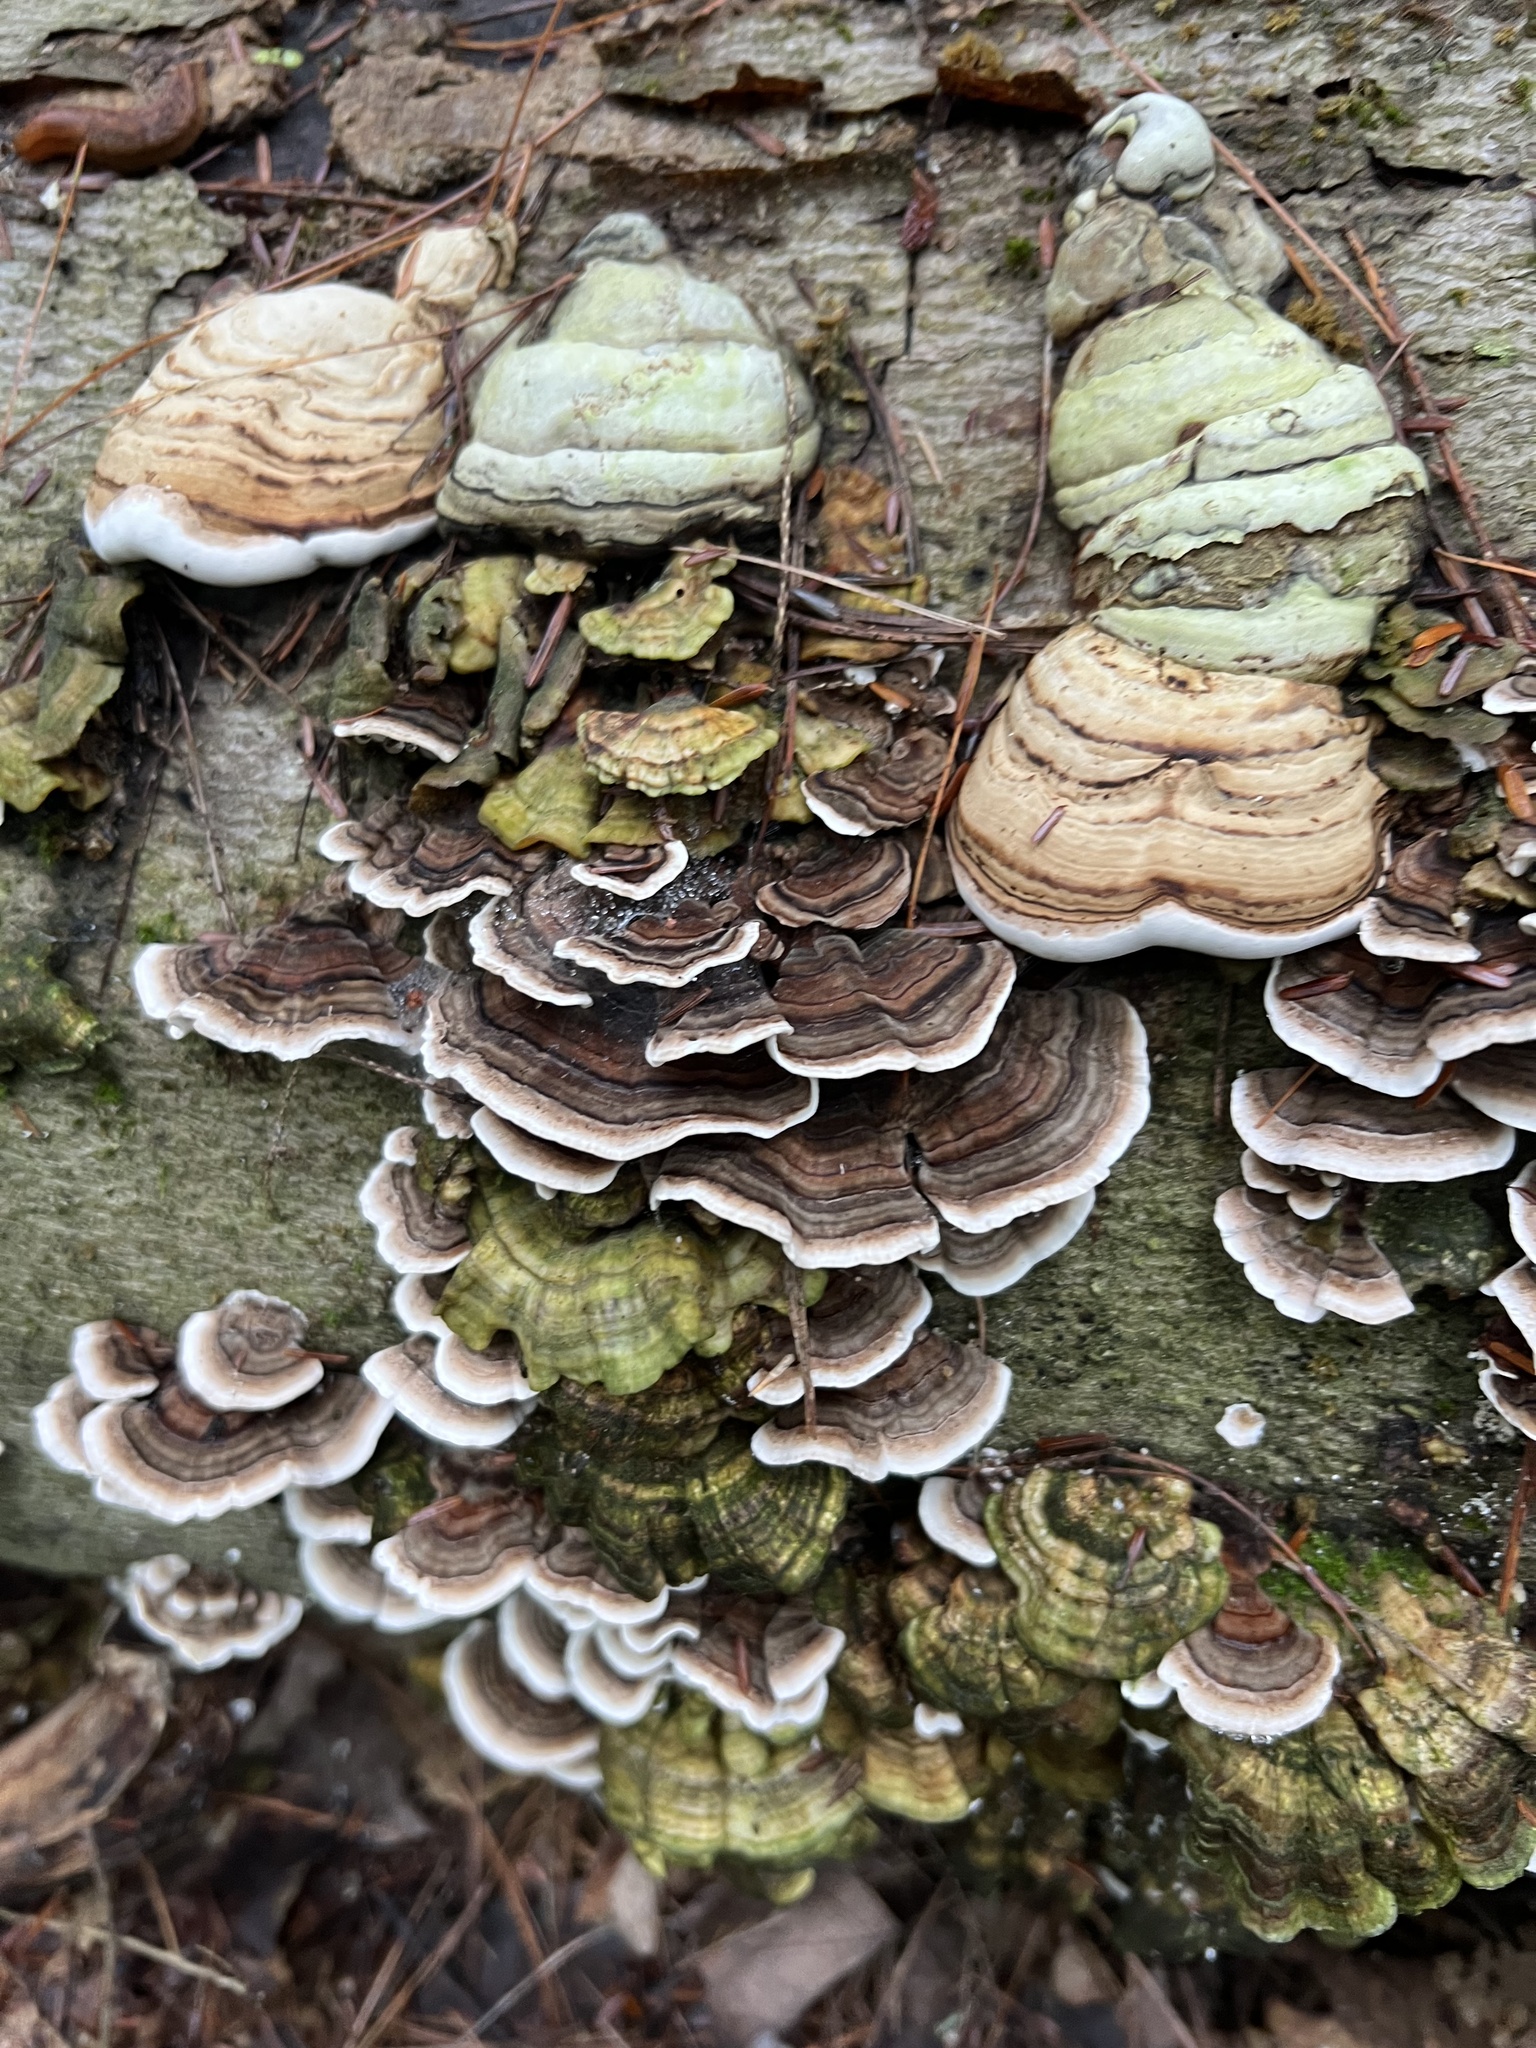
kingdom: Fungi
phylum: Basidiomycota
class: Agaricomycetes
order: Polyporales
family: Polyporaceae
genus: Trametes
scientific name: Trametes versicolor
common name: Turkeytail
